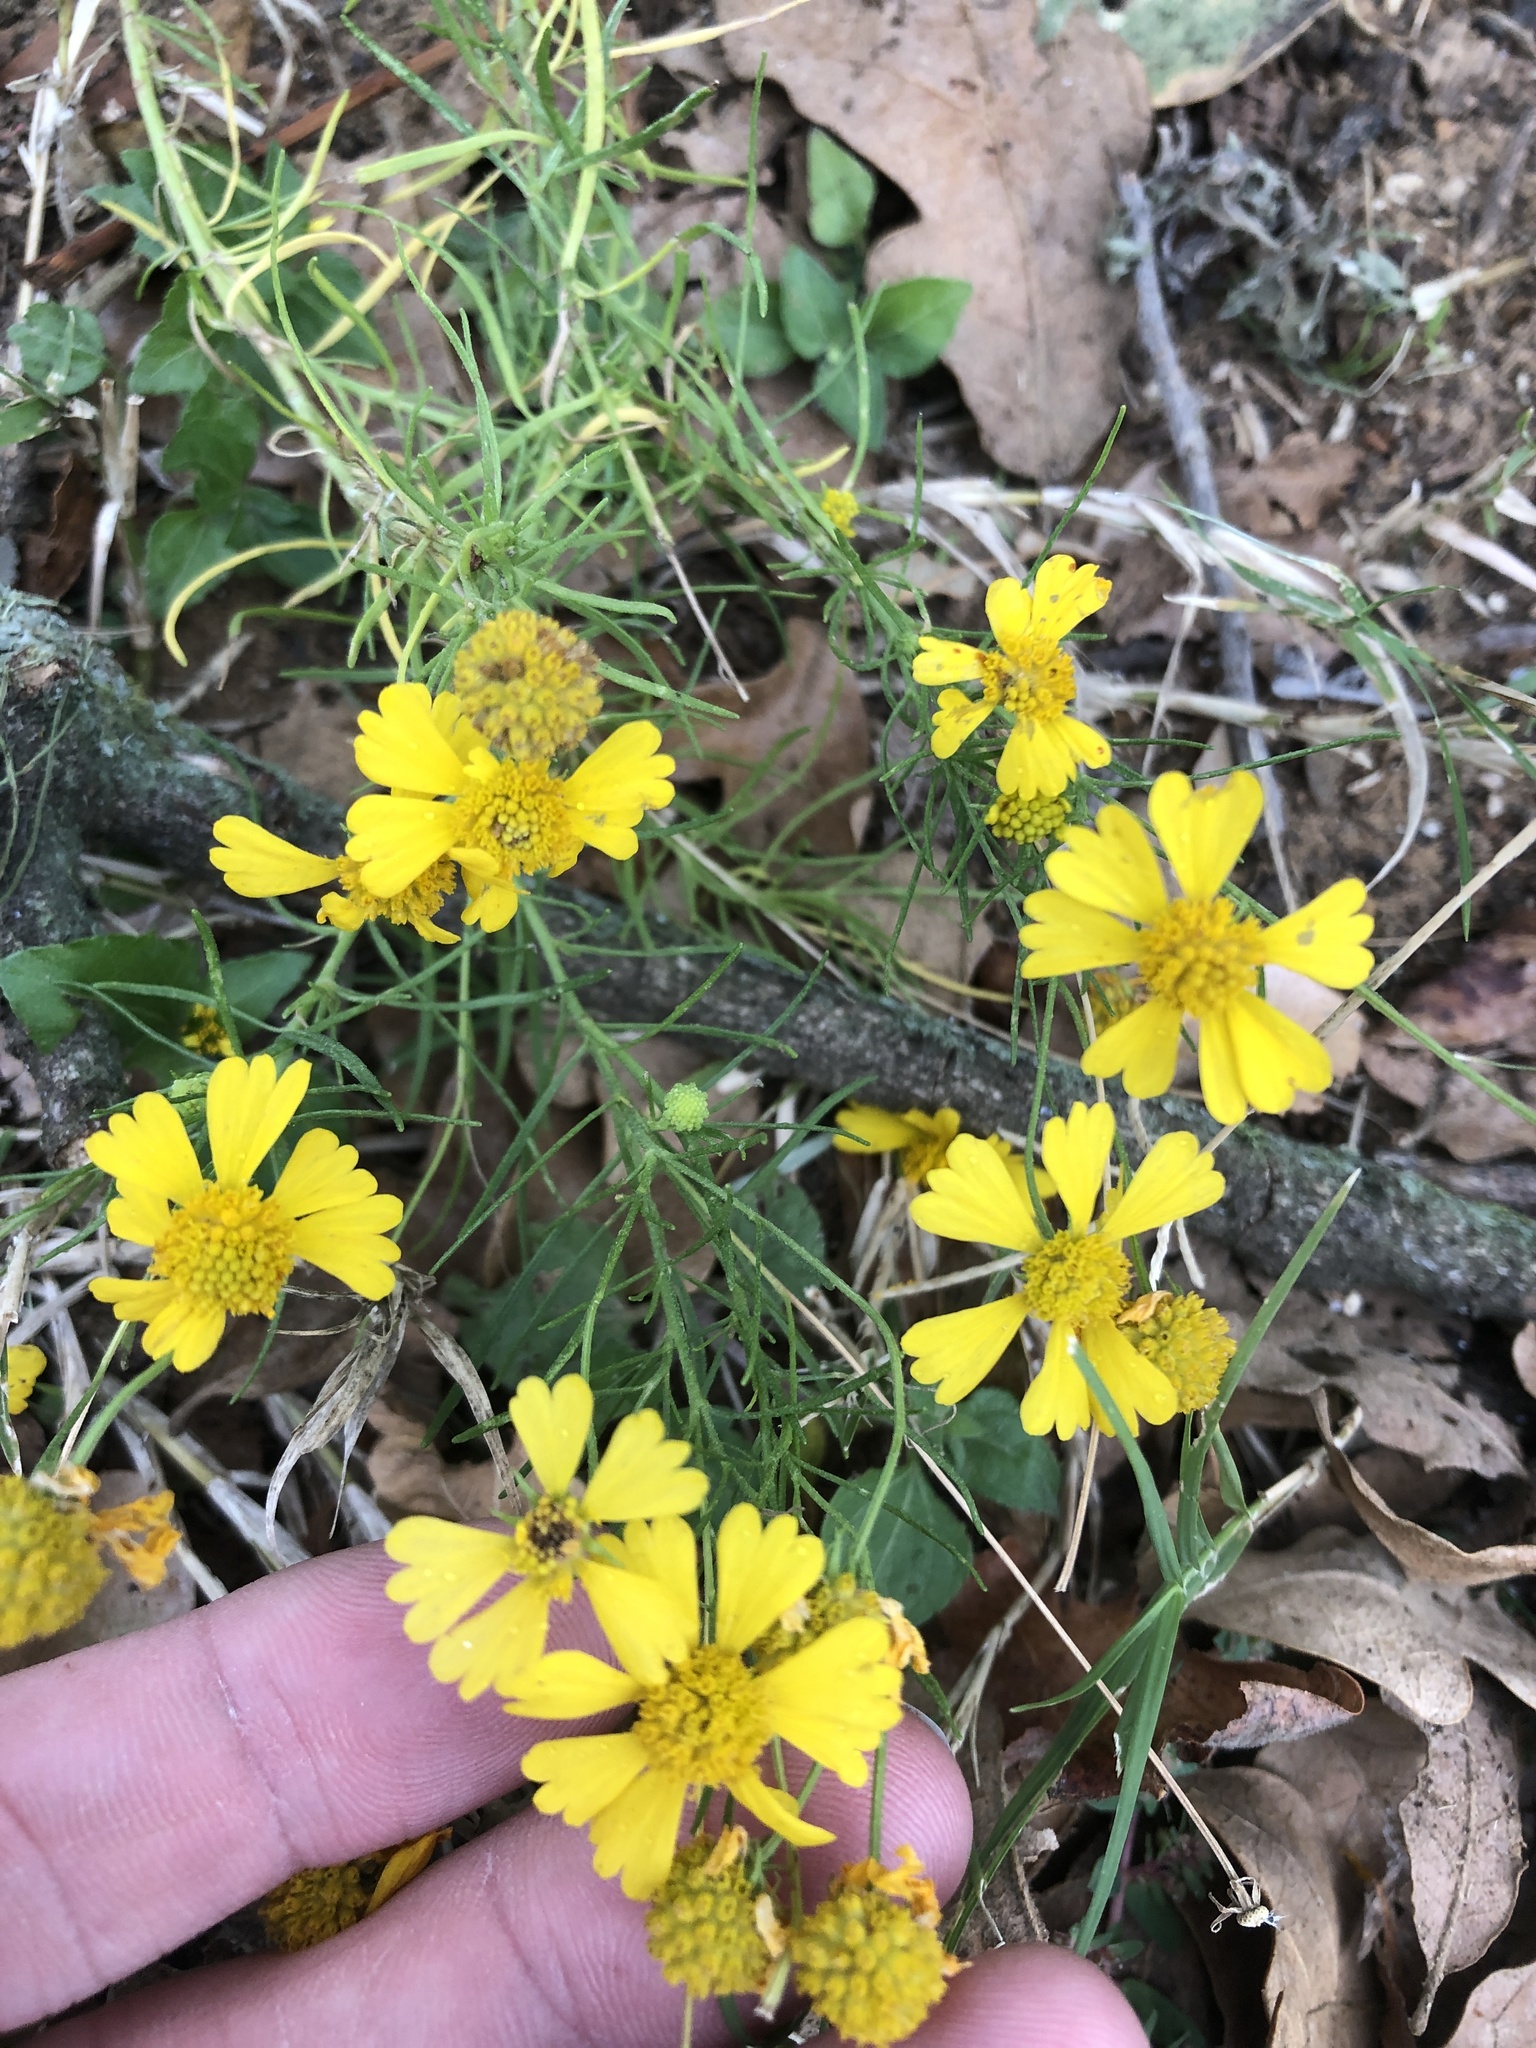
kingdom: Plantae
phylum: Tracheophyta
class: Magnoliopsida
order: Asterales
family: Asteraceae
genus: Helenium
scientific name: Helenium amarum
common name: Bitter sneezeweed
